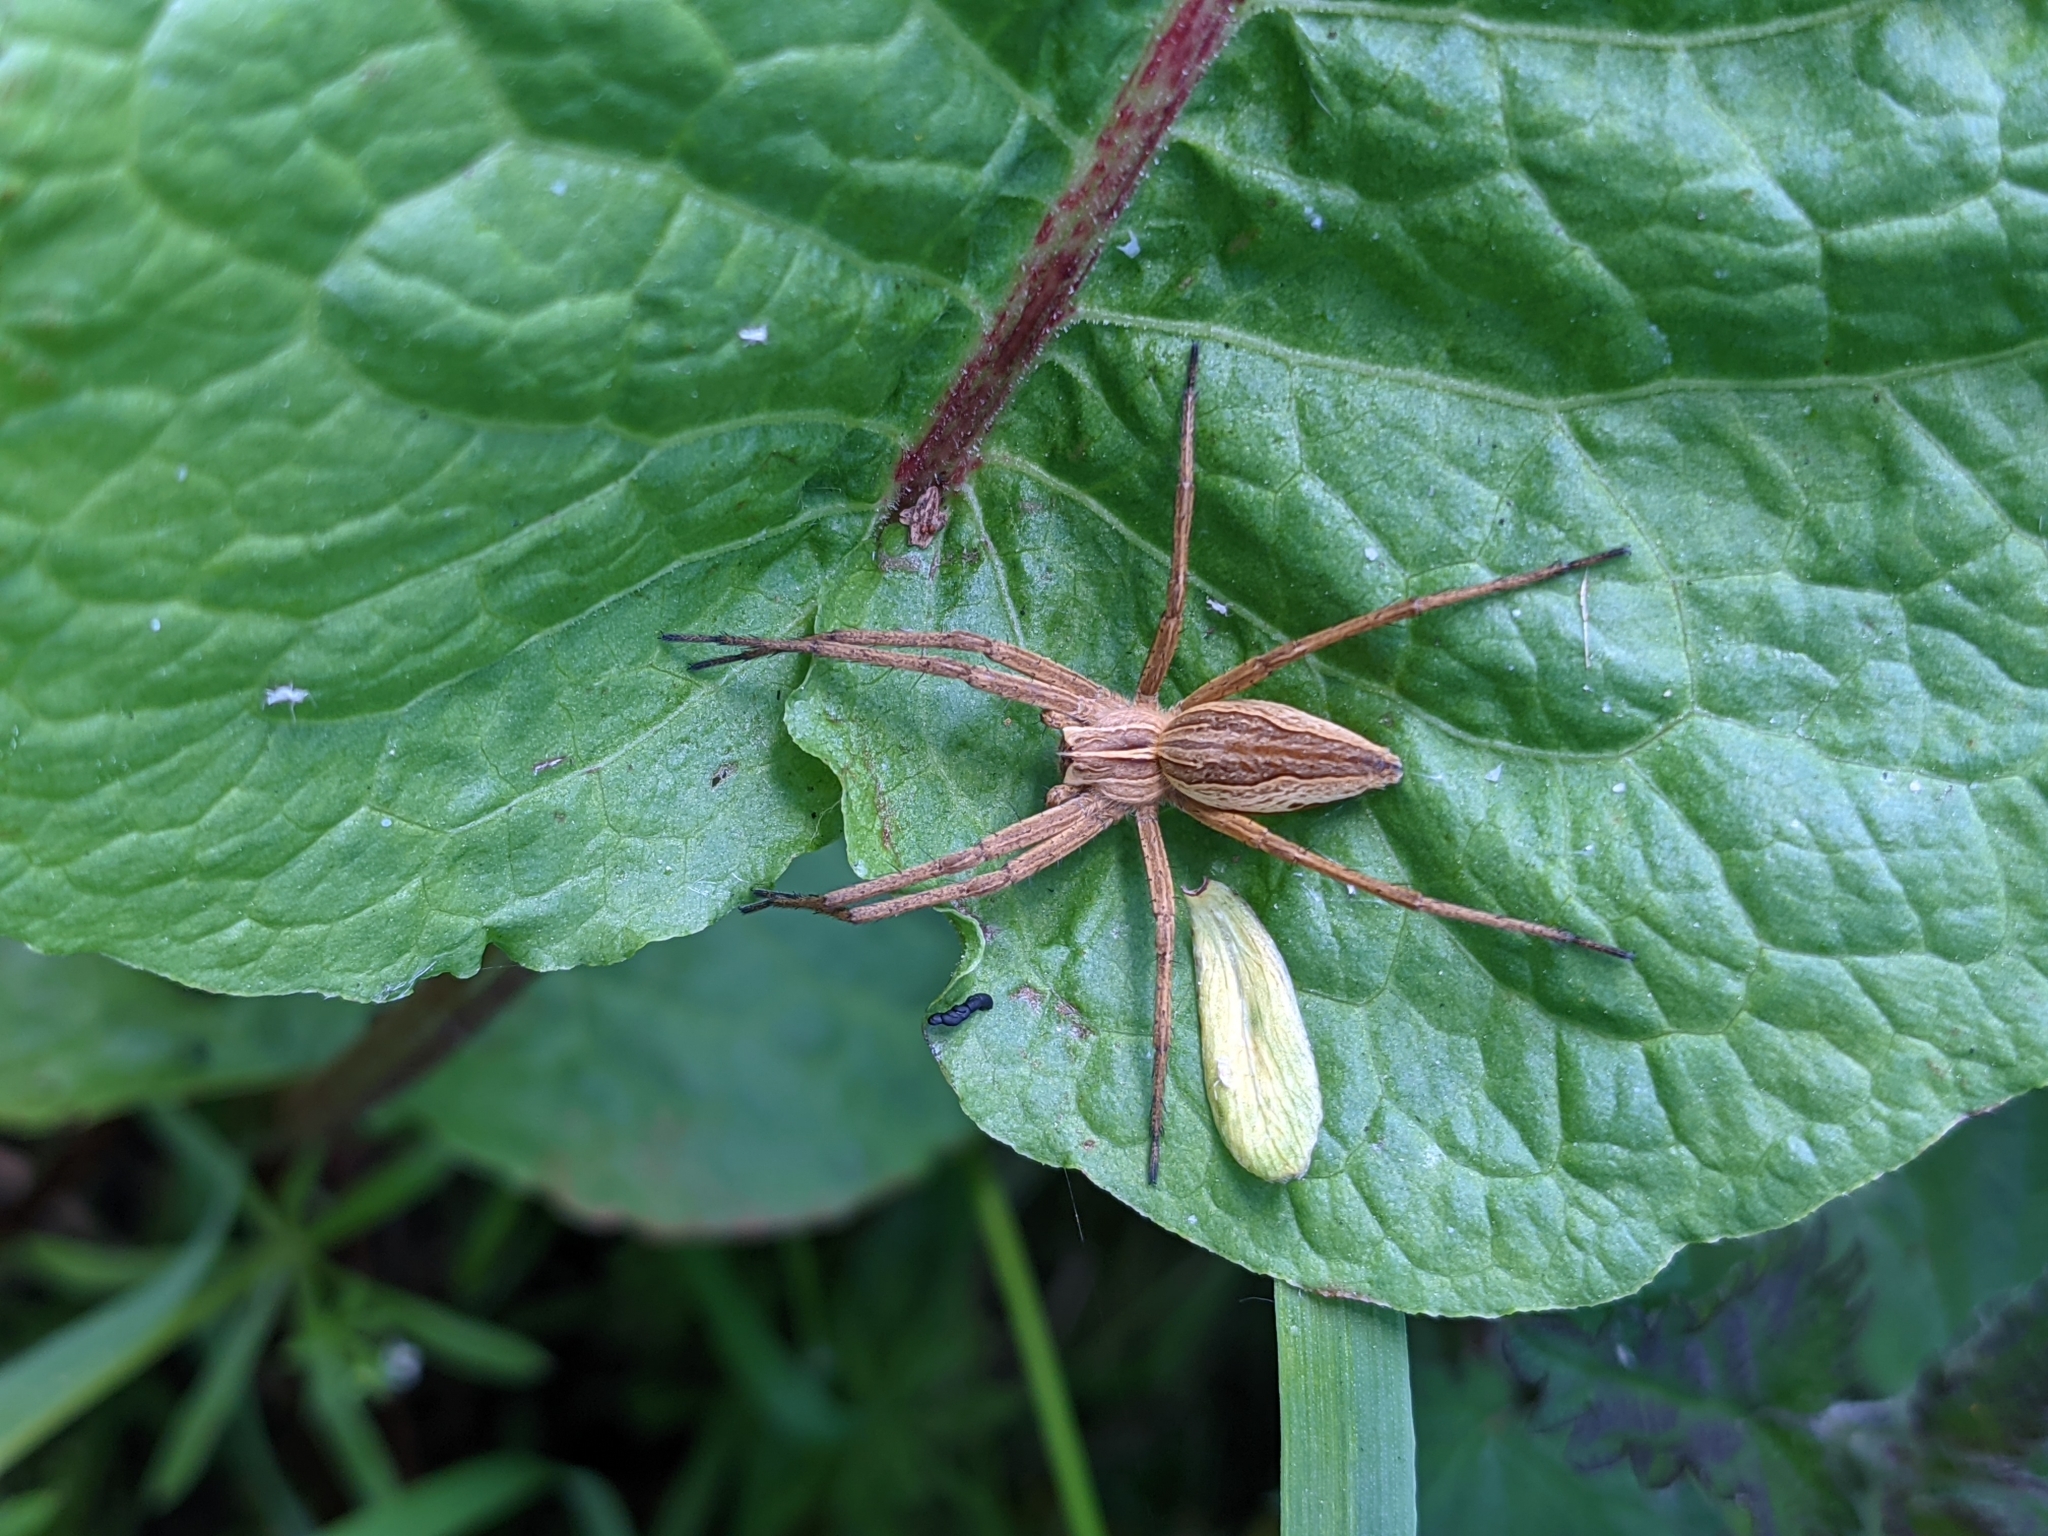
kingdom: Animalia
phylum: Arthropoda
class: Arachnida
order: Araneae
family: Pisauridae
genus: Pisaura
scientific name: Pisaura mirabilis
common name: Tent spider
